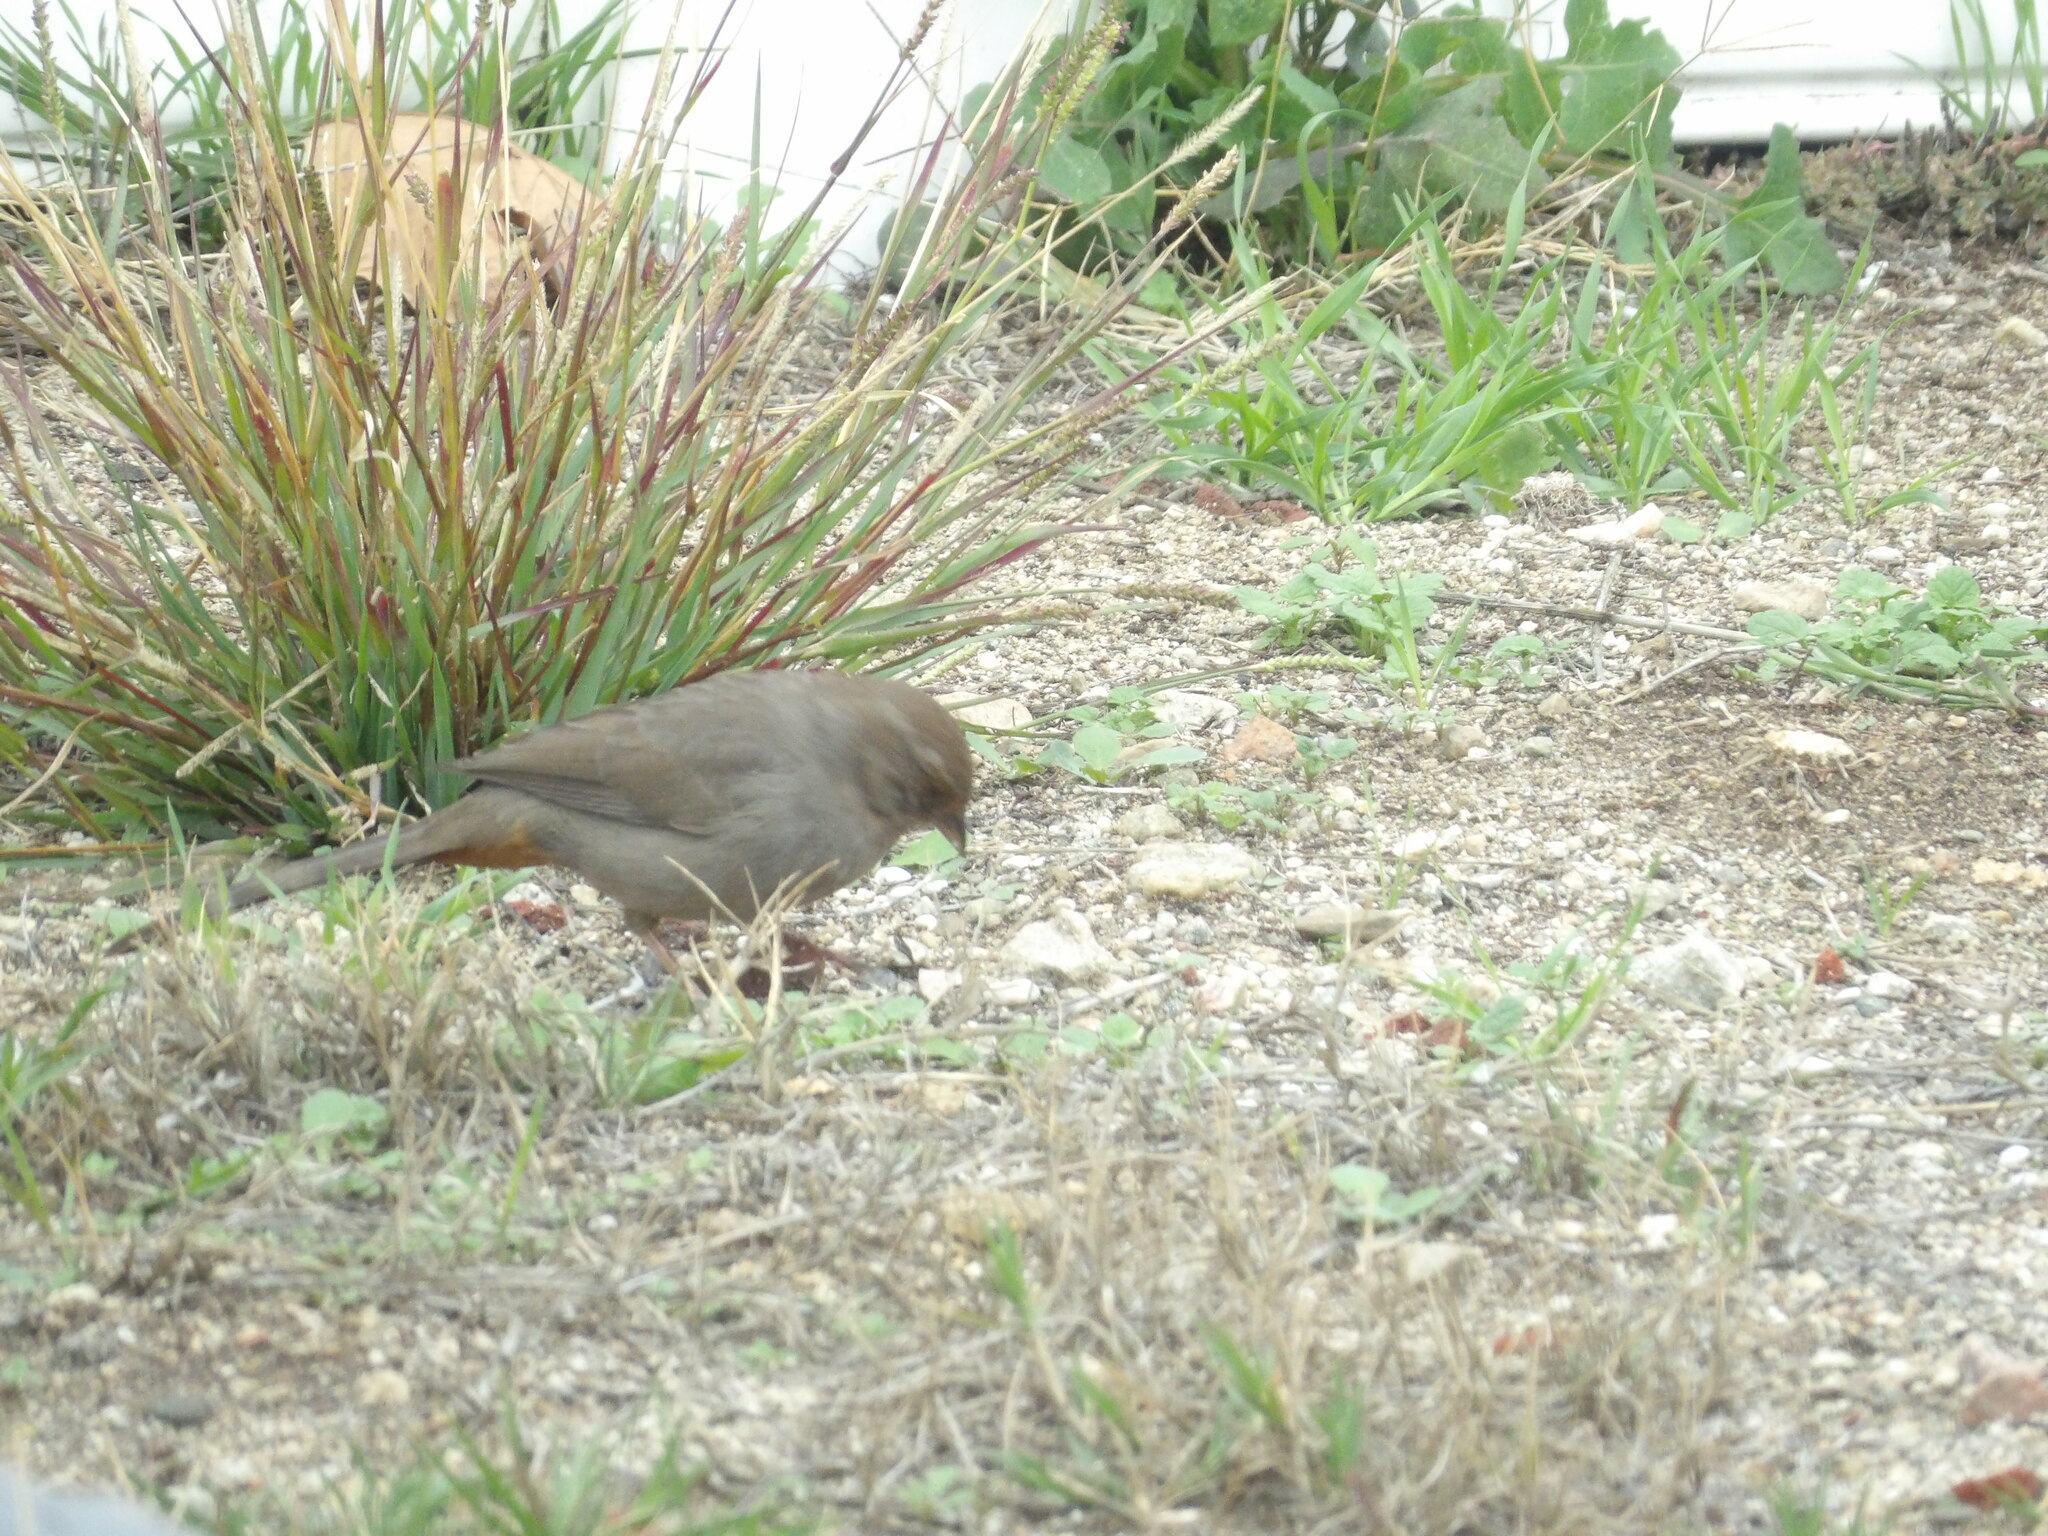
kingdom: Animalia
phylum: Chordata
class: Aves
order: Passeriformes
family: Passerellidae
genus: Melozone
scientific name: Melozone crissalis
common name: California towhee
